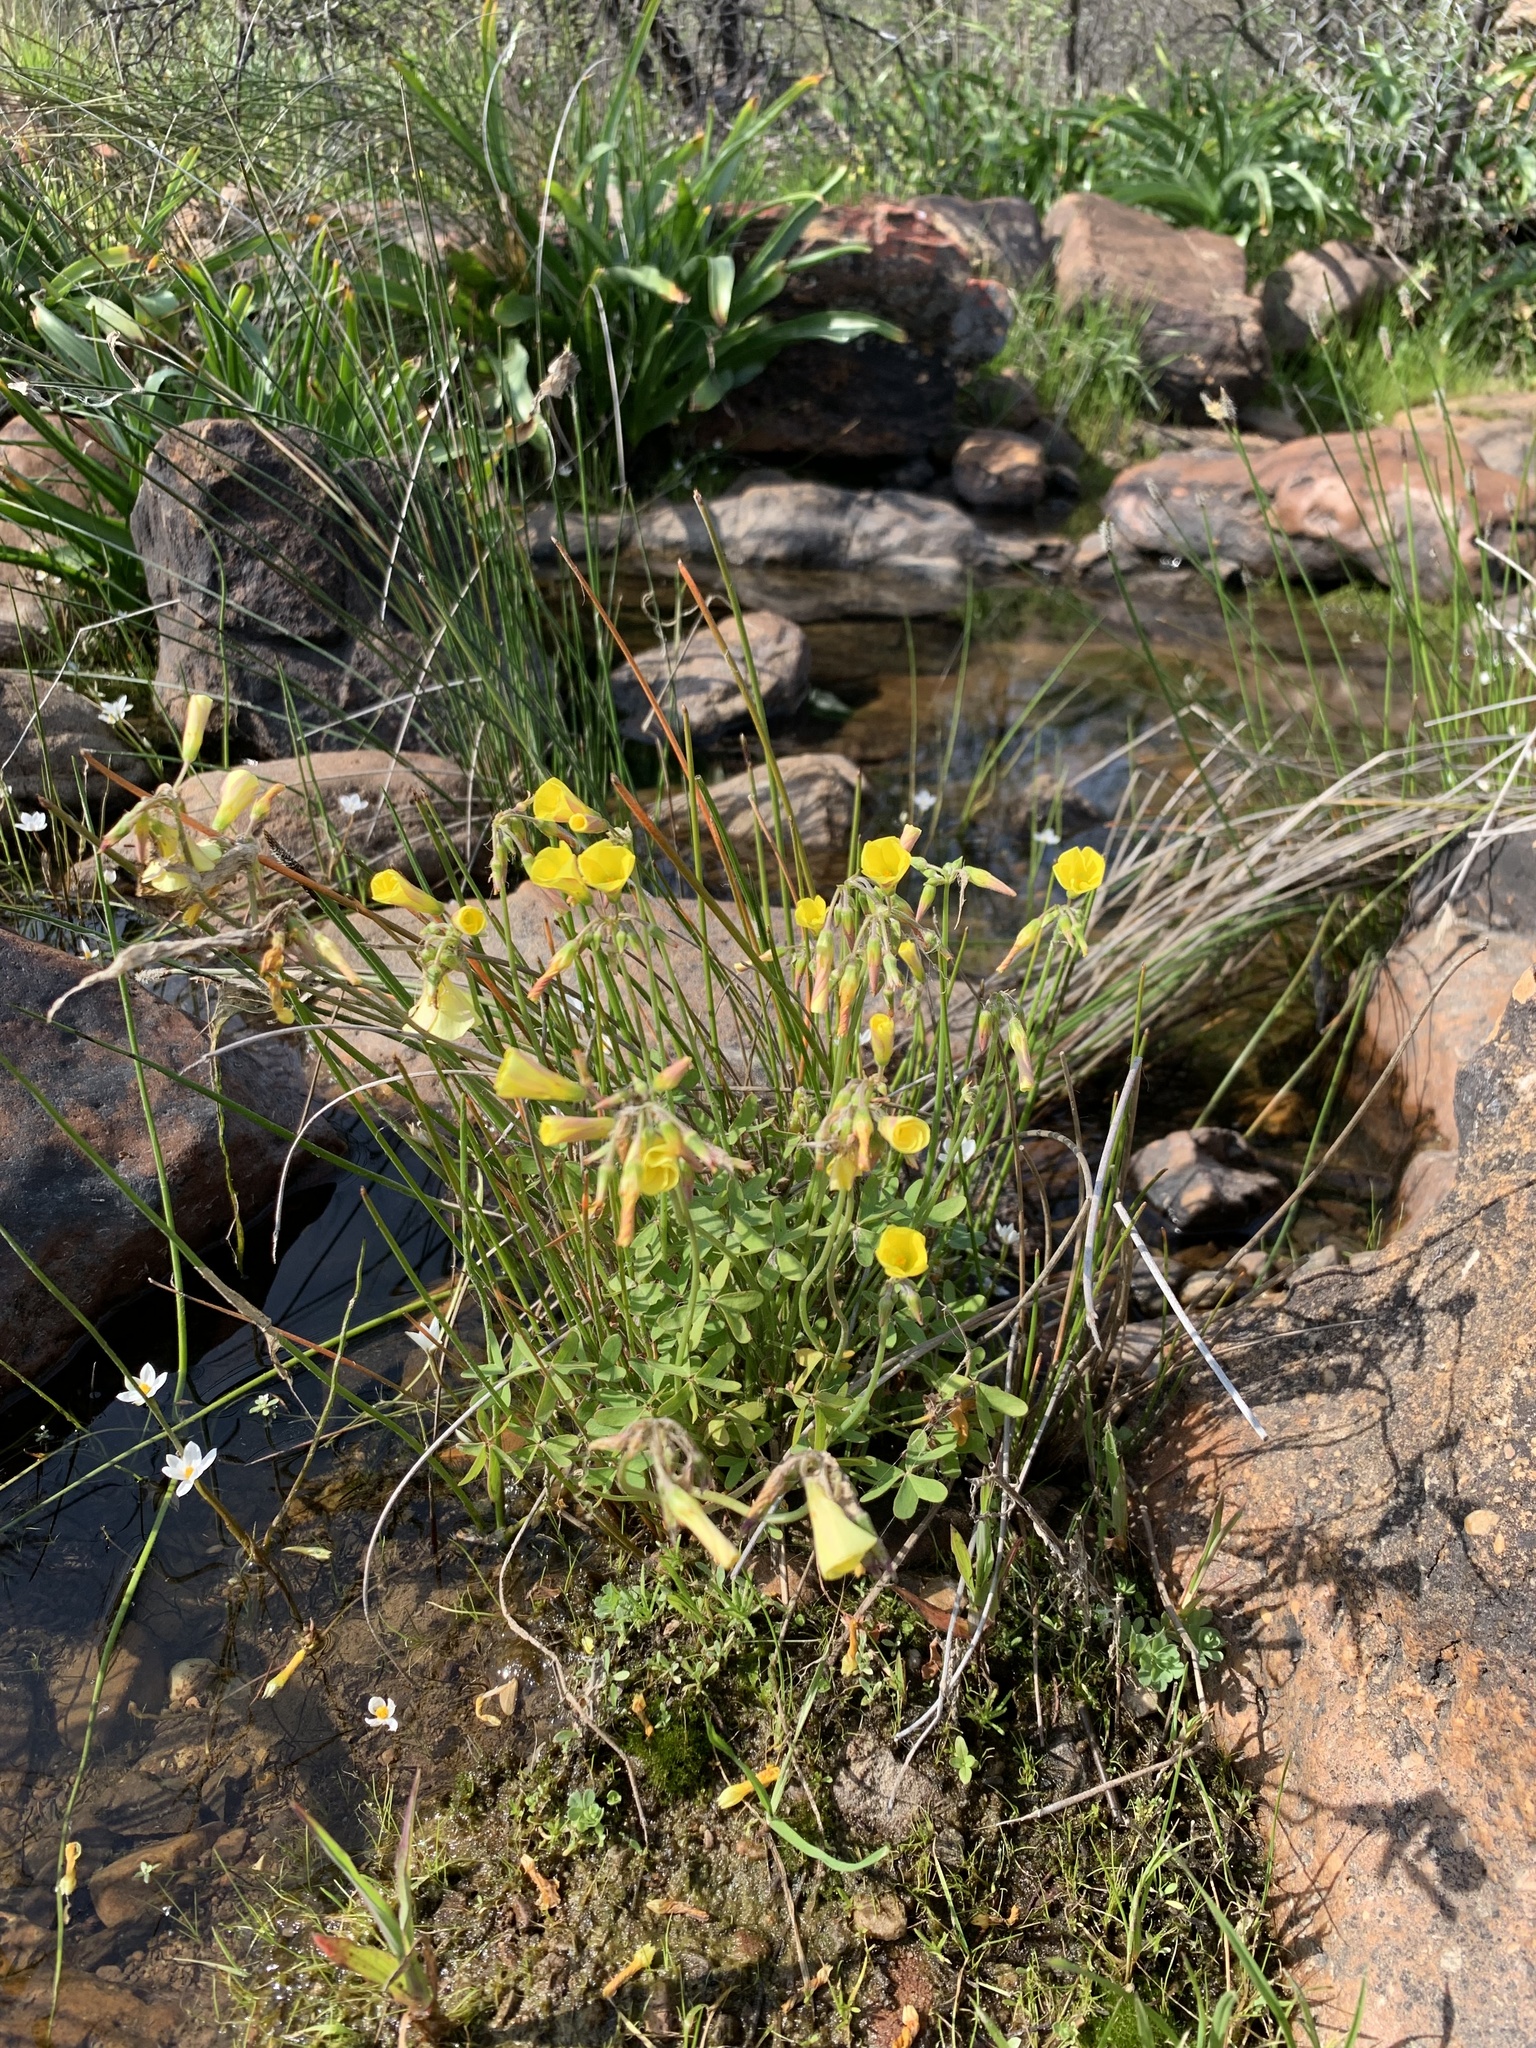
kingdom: Plantae
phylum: Tracheophyta
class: Magnoliopsida
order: Oxalidales
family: Oxalidaceae
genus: Oxalis
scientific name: Oxalis pes-caprae
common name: Bermuda-buttercup
